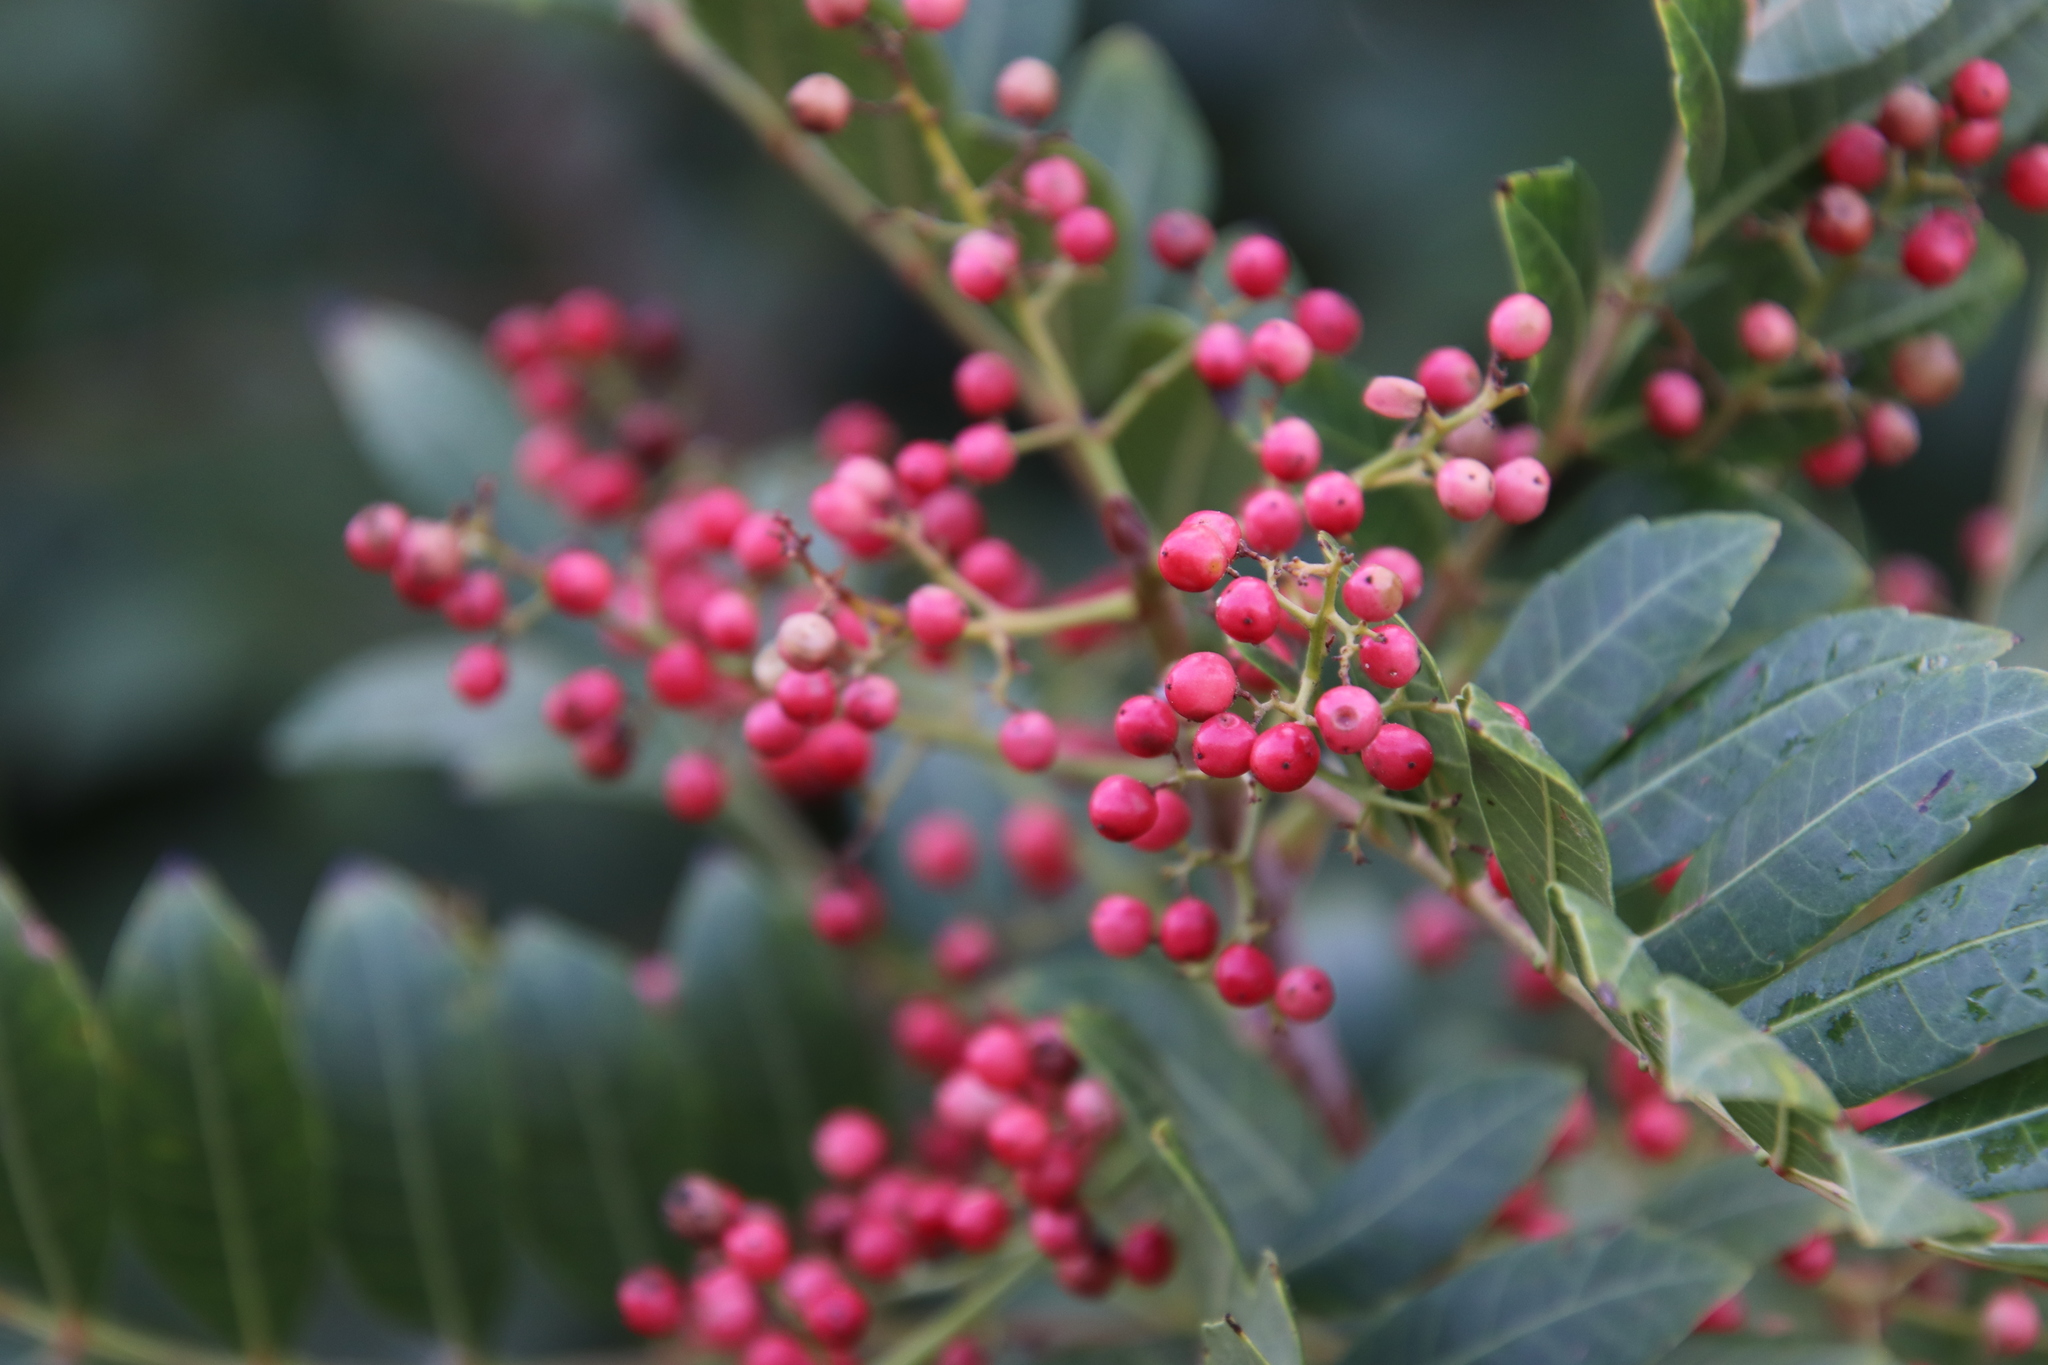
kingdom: Plantae
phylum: Tracheophyta
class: Magnoliopsida
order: Sapindales
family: Anacardiaceae
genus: Schinus
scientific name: Schinus terebinthifolia
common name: Brazilian peppertree
